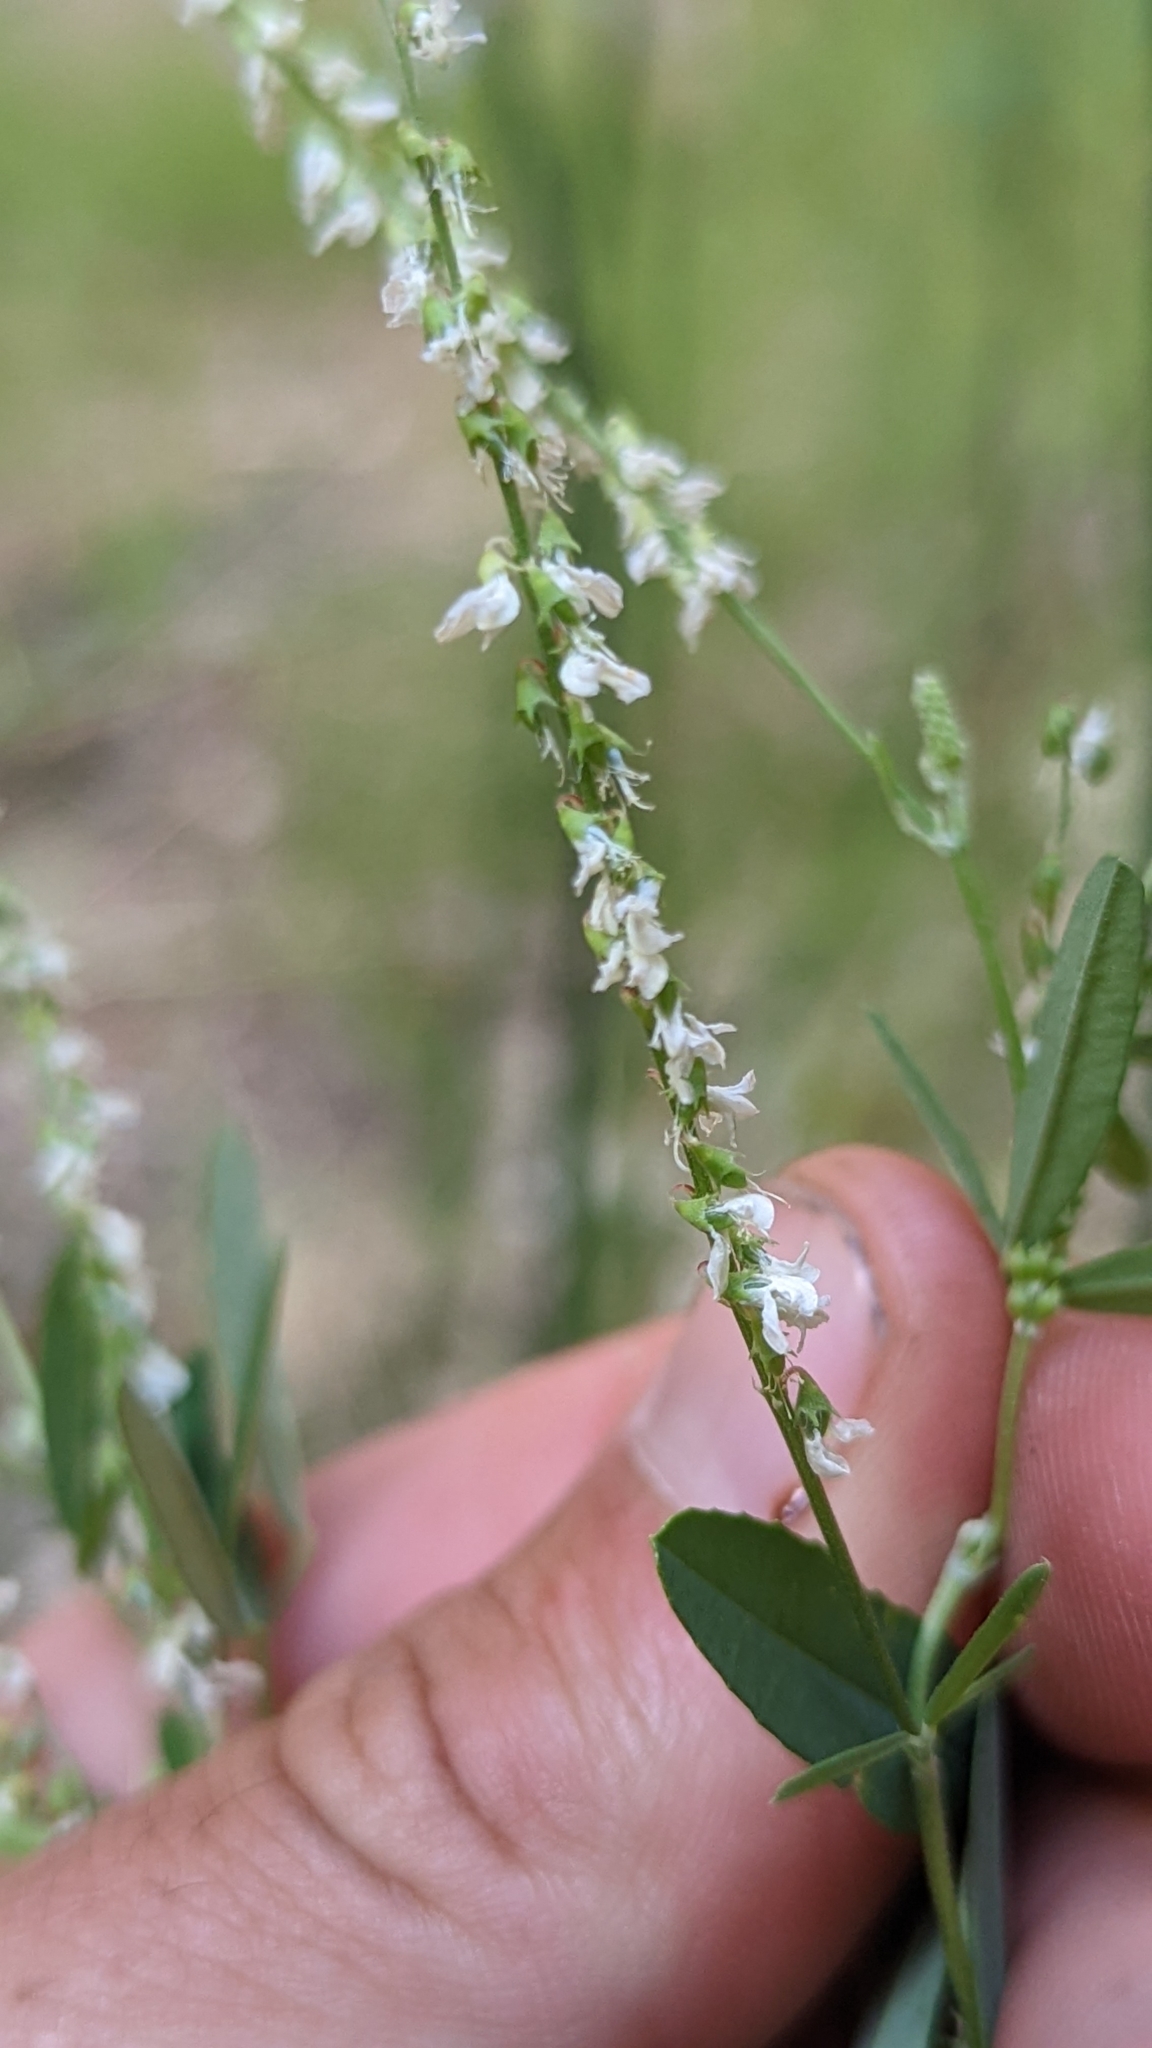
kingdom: Plantae
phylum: Tracheophyta
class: Magnoliopsida
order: Fabales
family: Fabaceae
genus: Melilotus
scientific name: Melilotus albus
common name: White melilot
